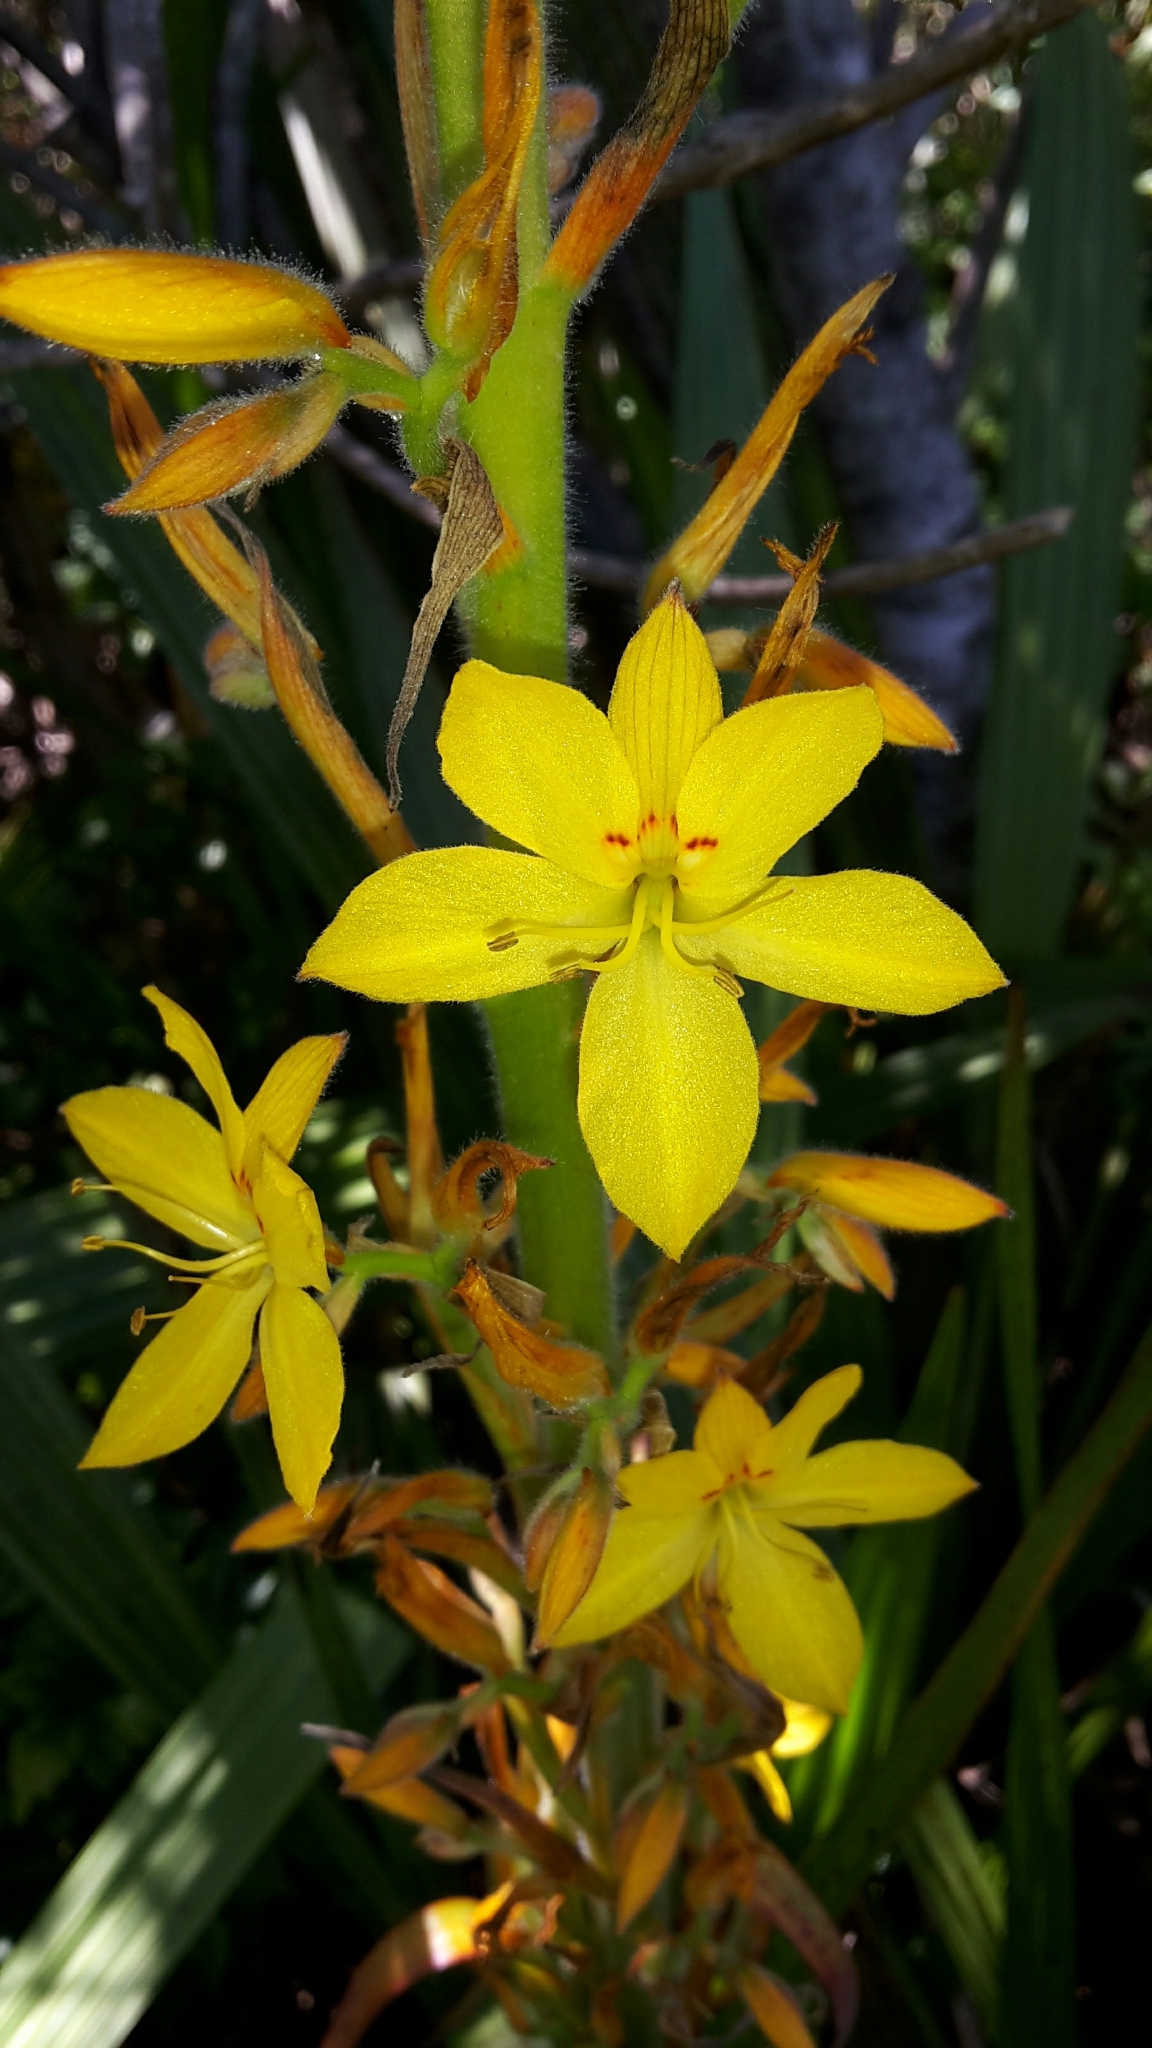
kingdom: Plantae
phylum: Tracheophyta
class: Liliopsida
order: Commelinales
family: Haemodoraceae
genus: Wachendorfia
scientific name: Wachendorfia thyrsiflora
